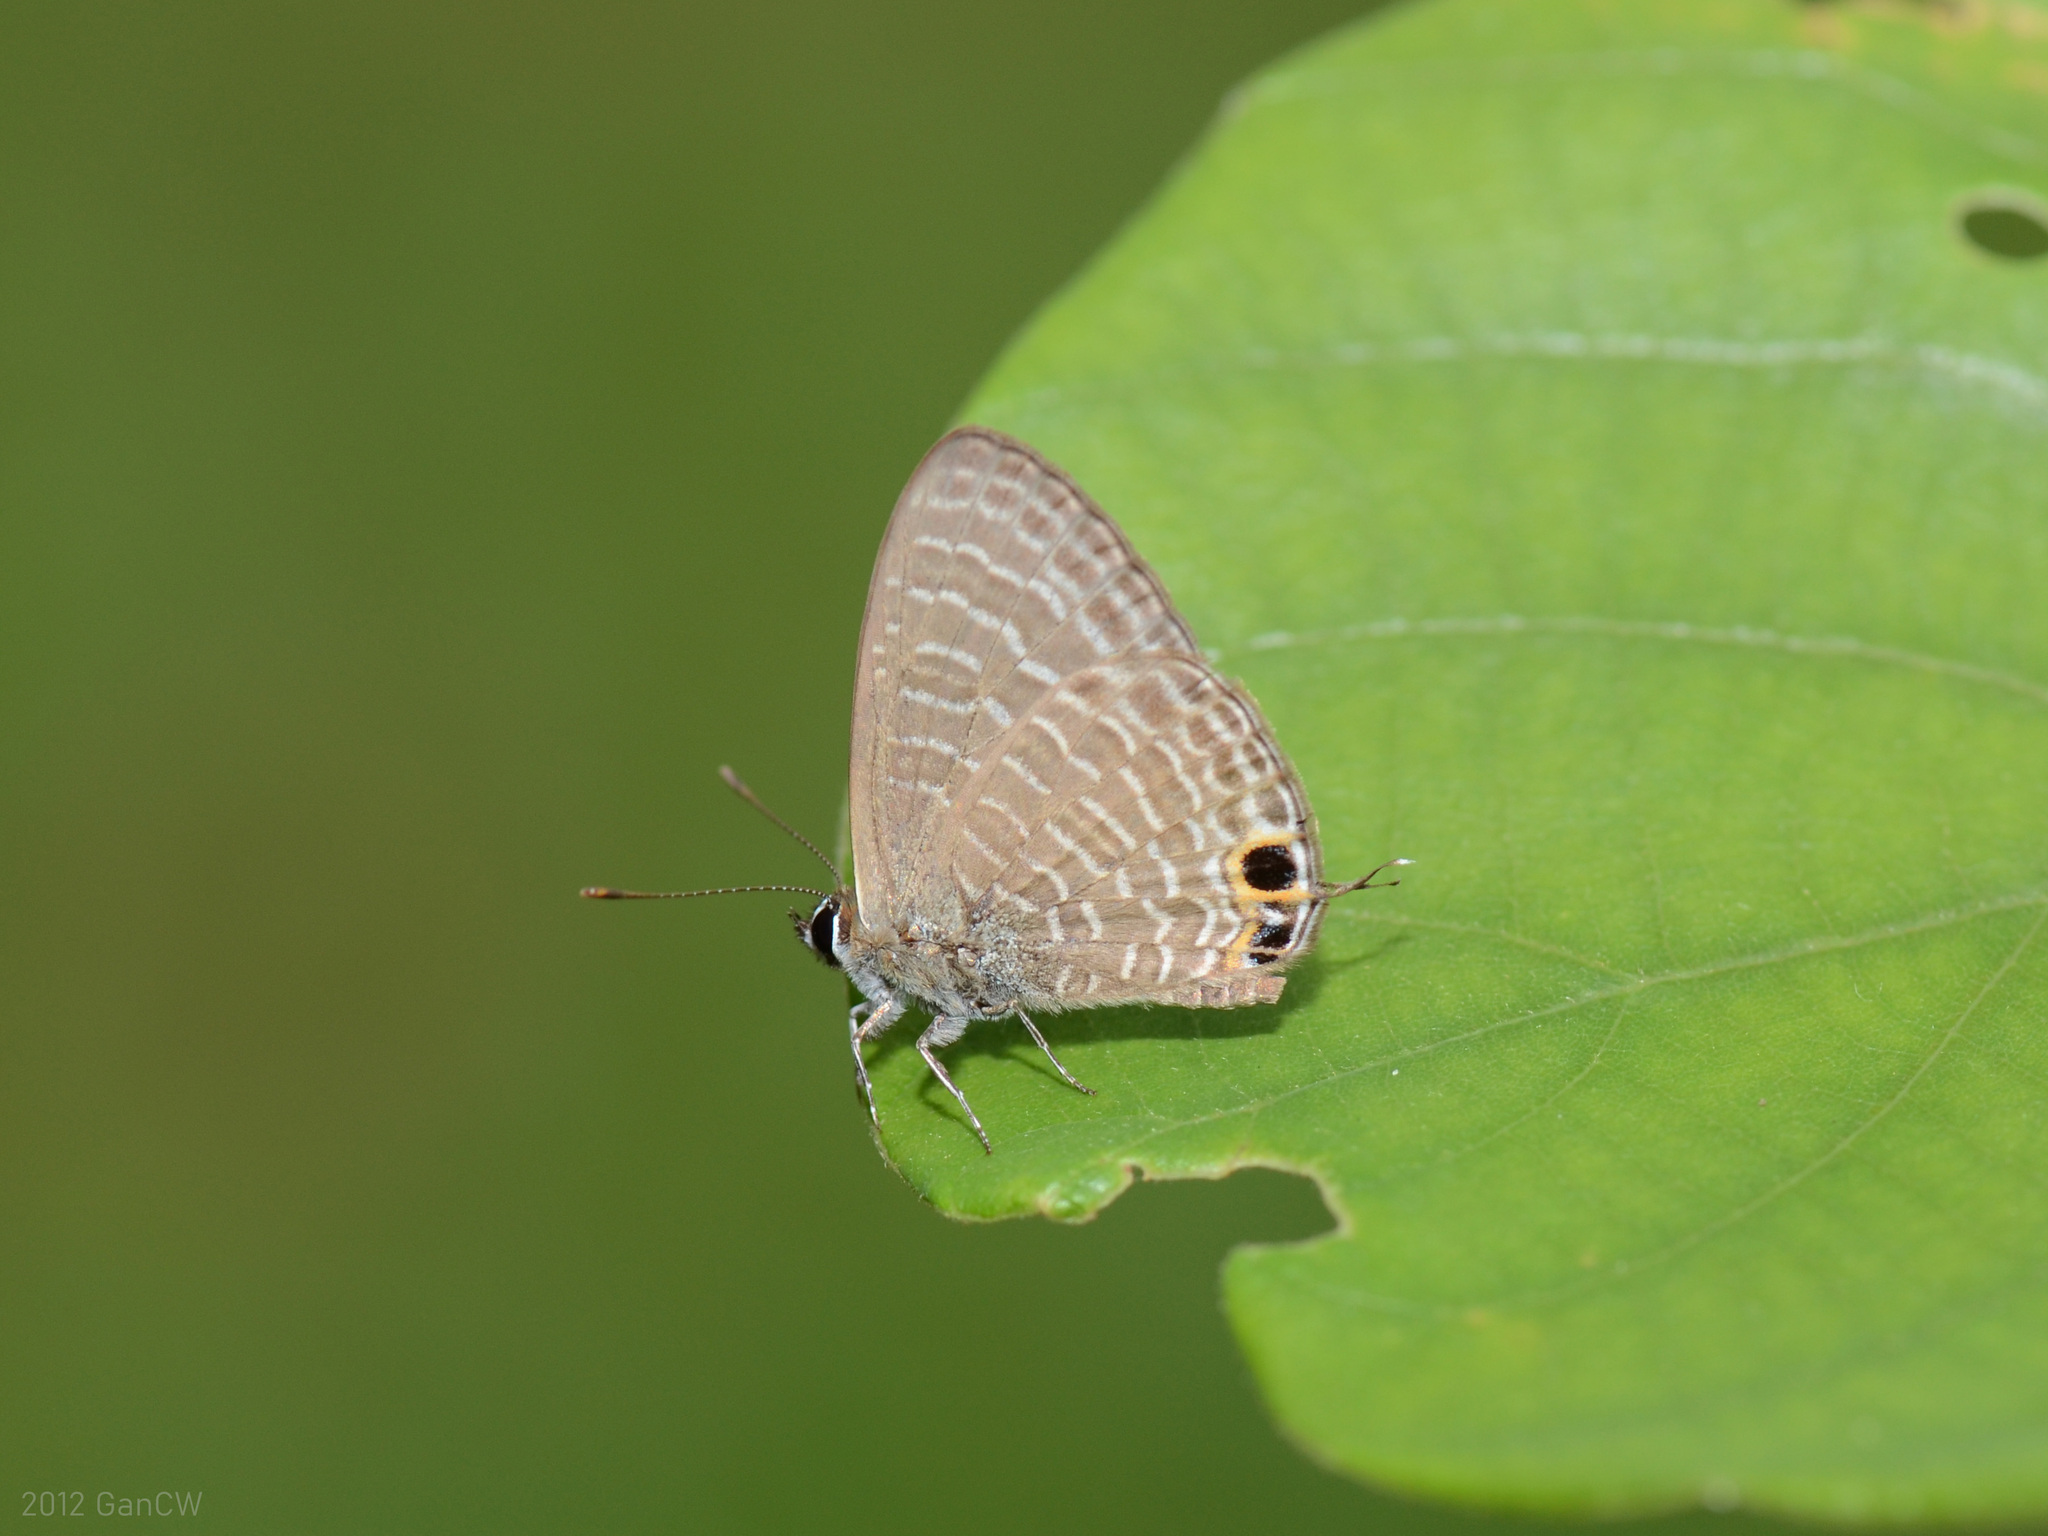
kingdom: Animalia
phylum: Arthropoda
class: Insecta
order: Lepidoptera
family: Lycaenidae
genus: Nacaduba
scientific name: Nacaduba kurava
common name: Transparent 6-line blue
